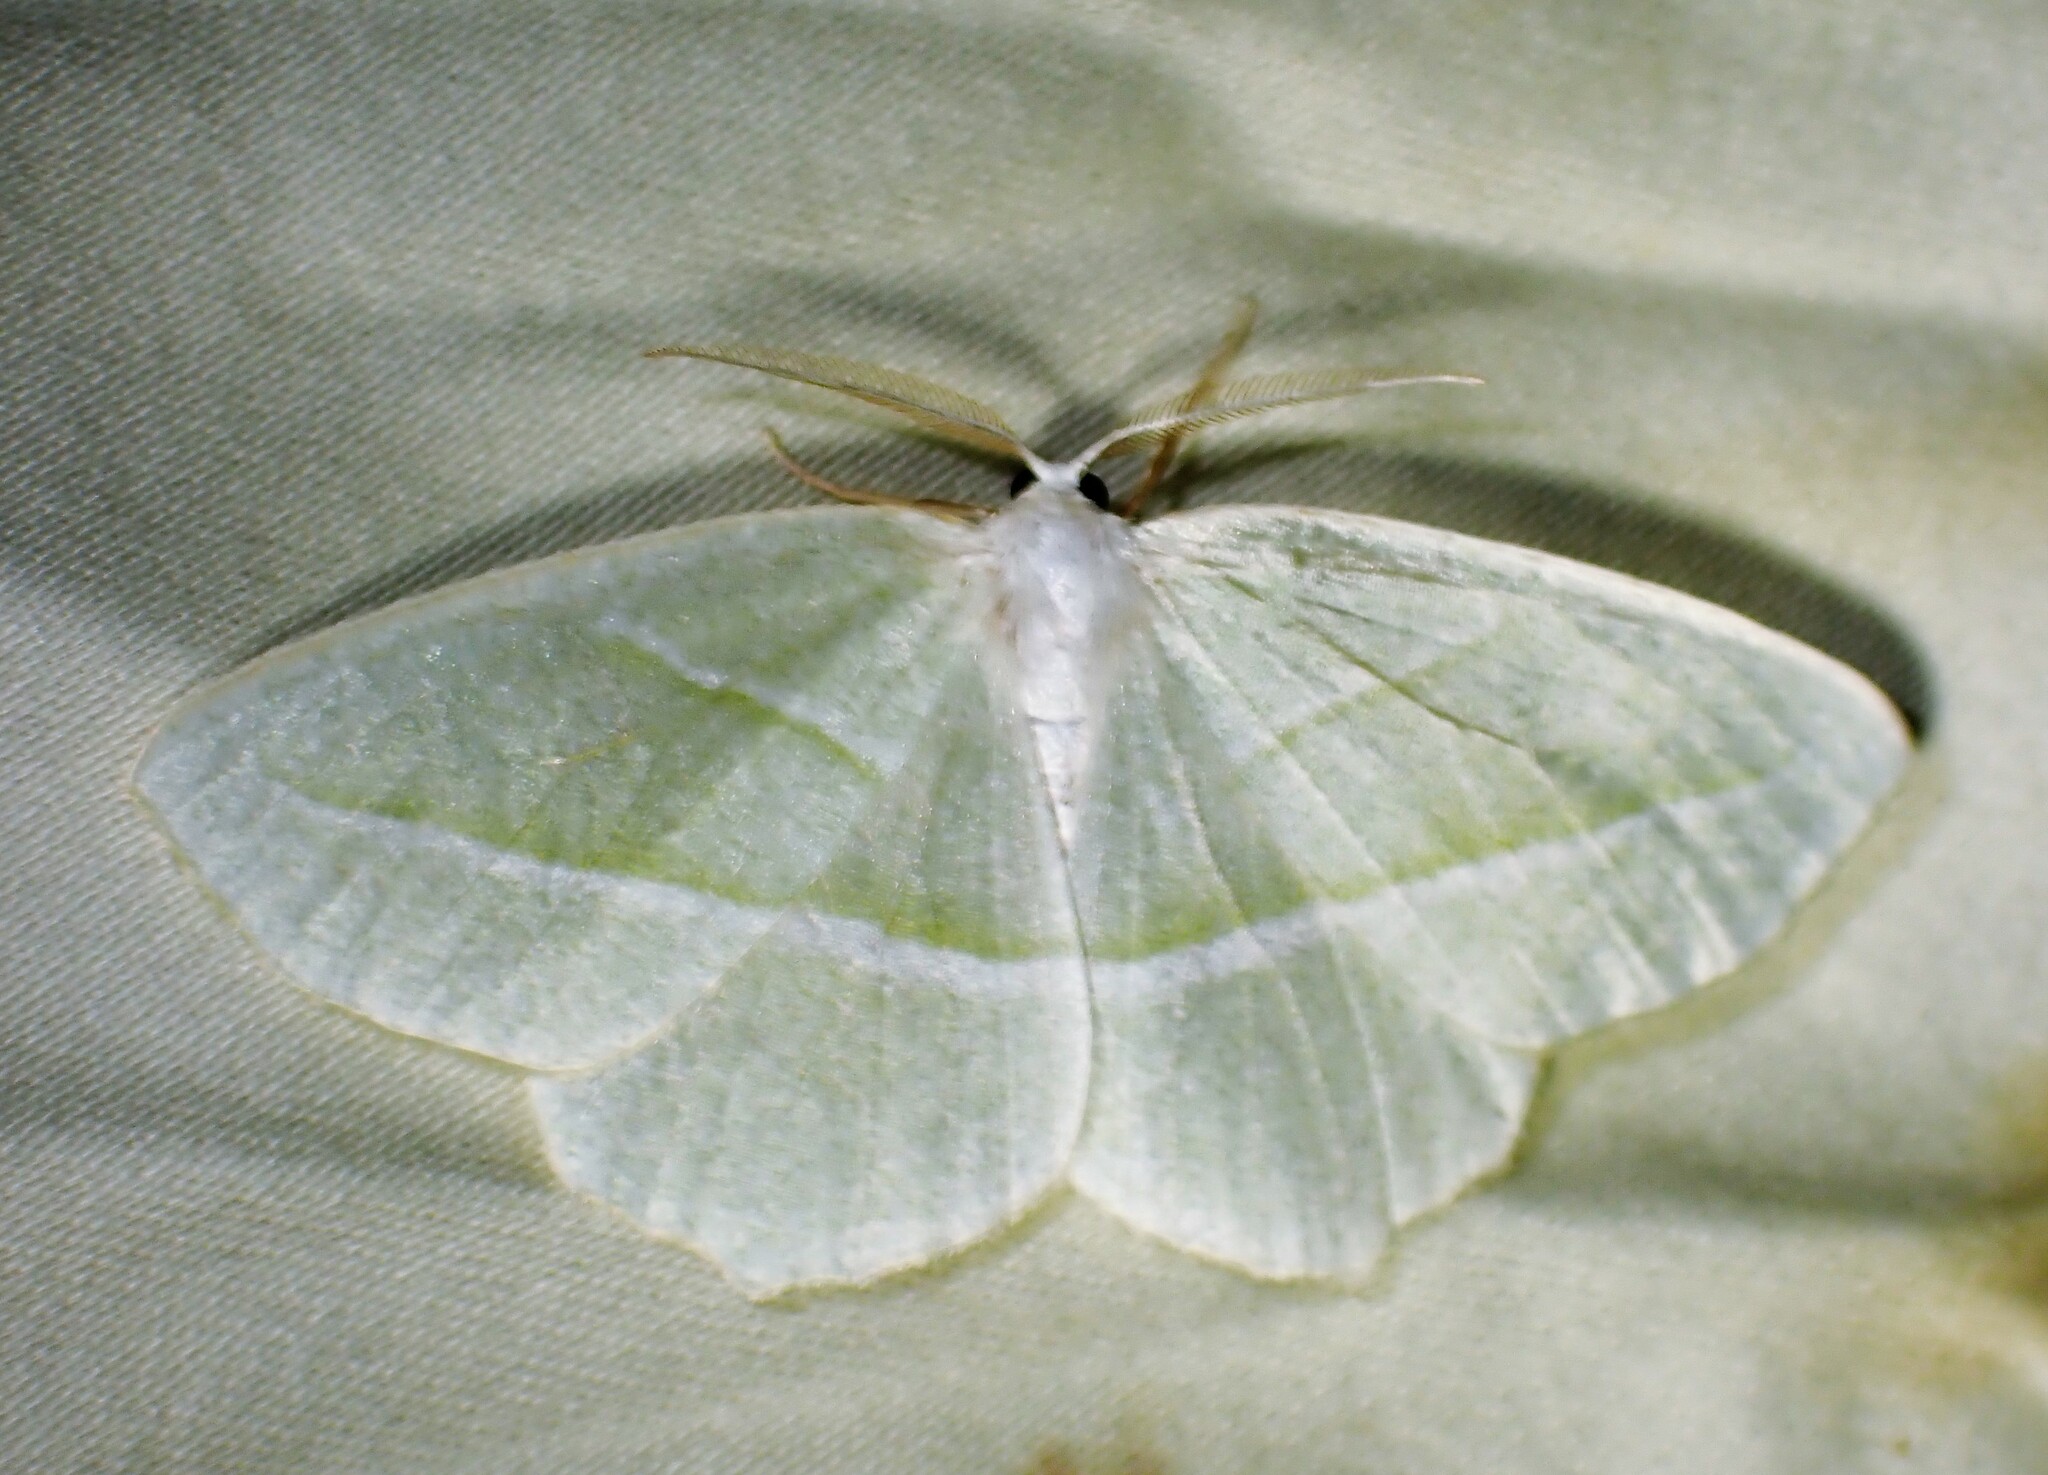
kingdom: Animalia
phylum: Arthropoda
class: Insecta
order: Lepidoptera
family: Geometridae
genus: Campaea
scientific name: Campaea perlata
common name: Fringed looper
